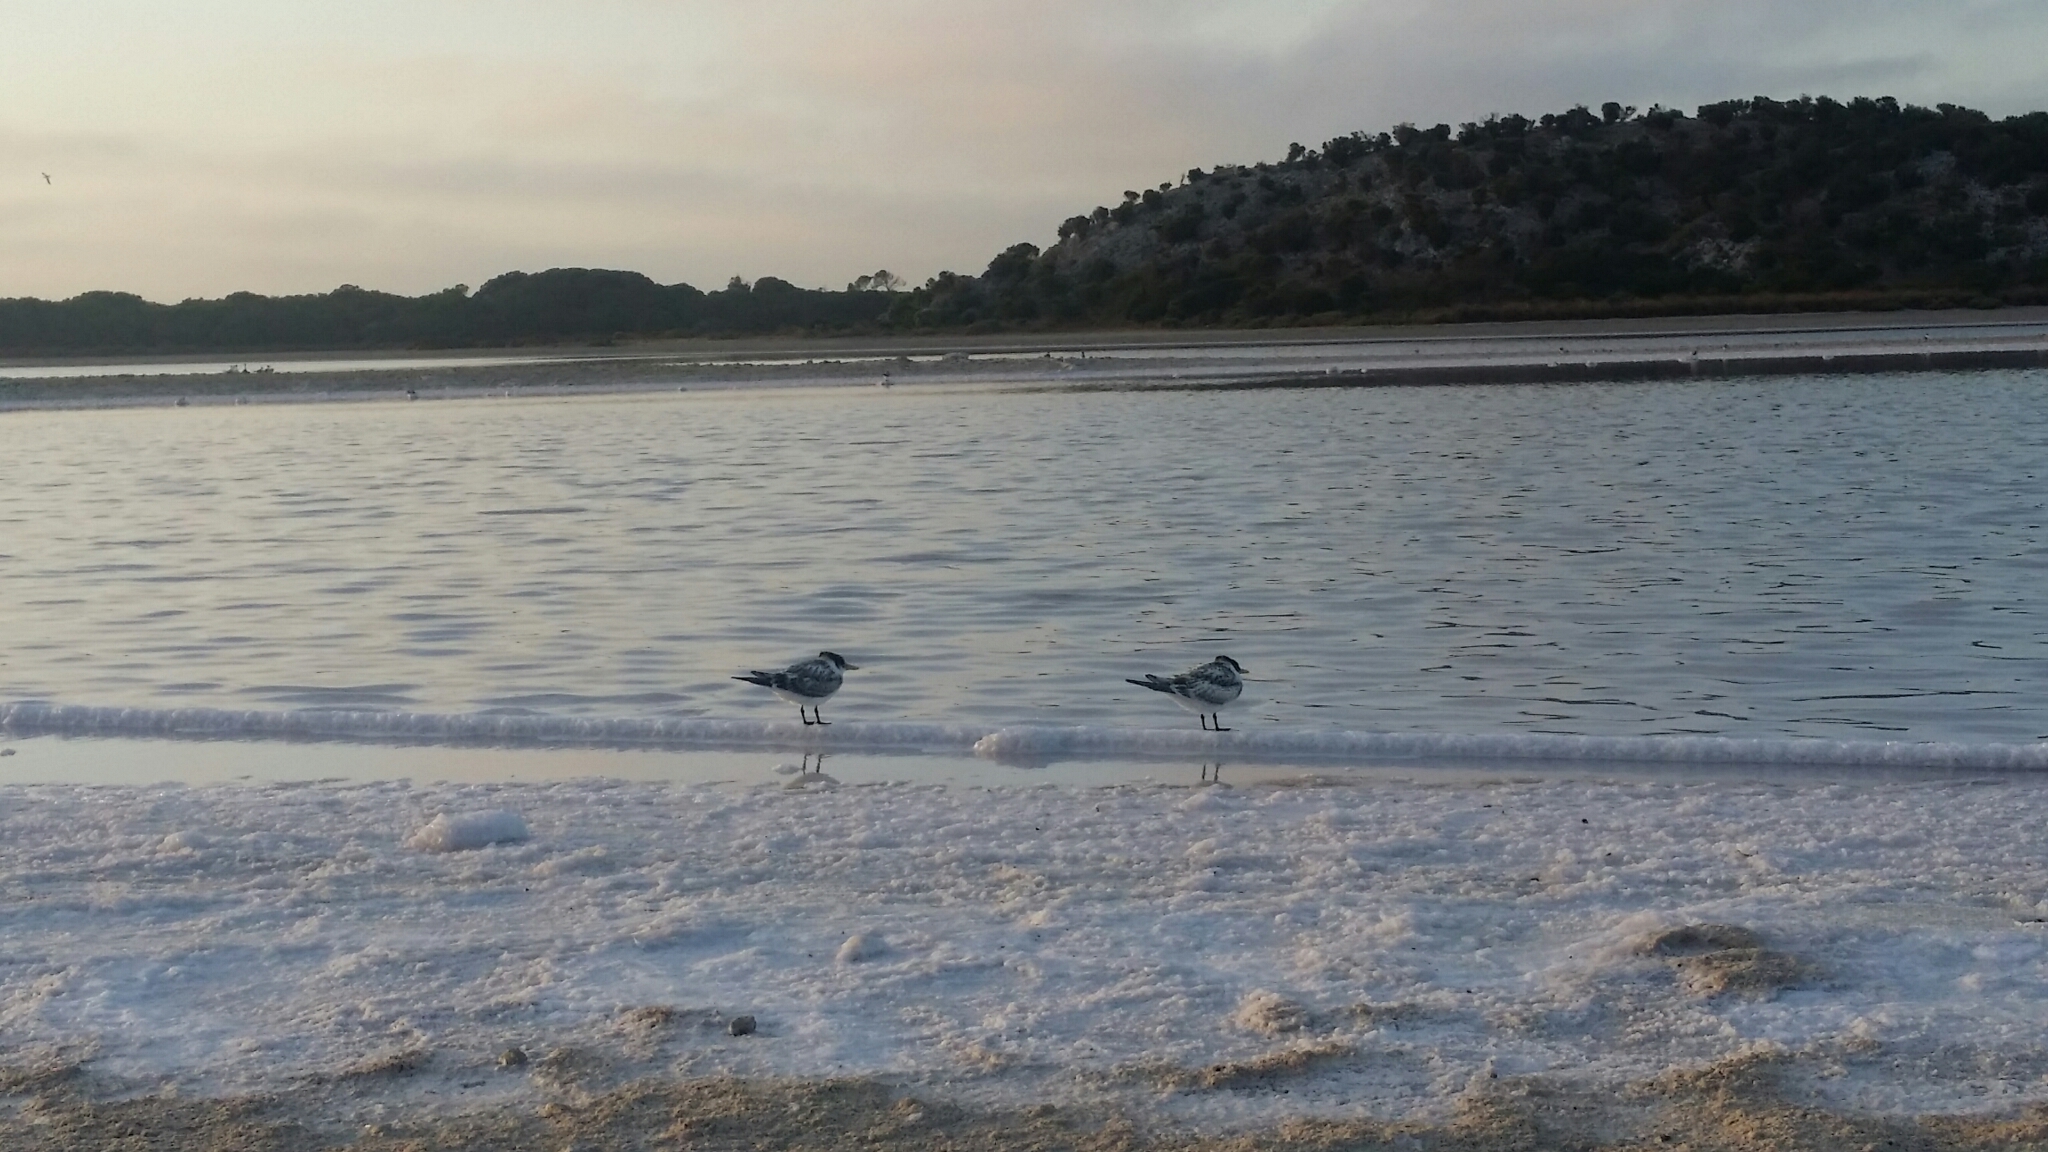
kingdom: Animalia
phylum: Chordata
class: Aves
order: Charadriiformes
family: Laridae
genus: Thalasseus
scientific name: Thalasseus bergii
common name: Greater crested tern
